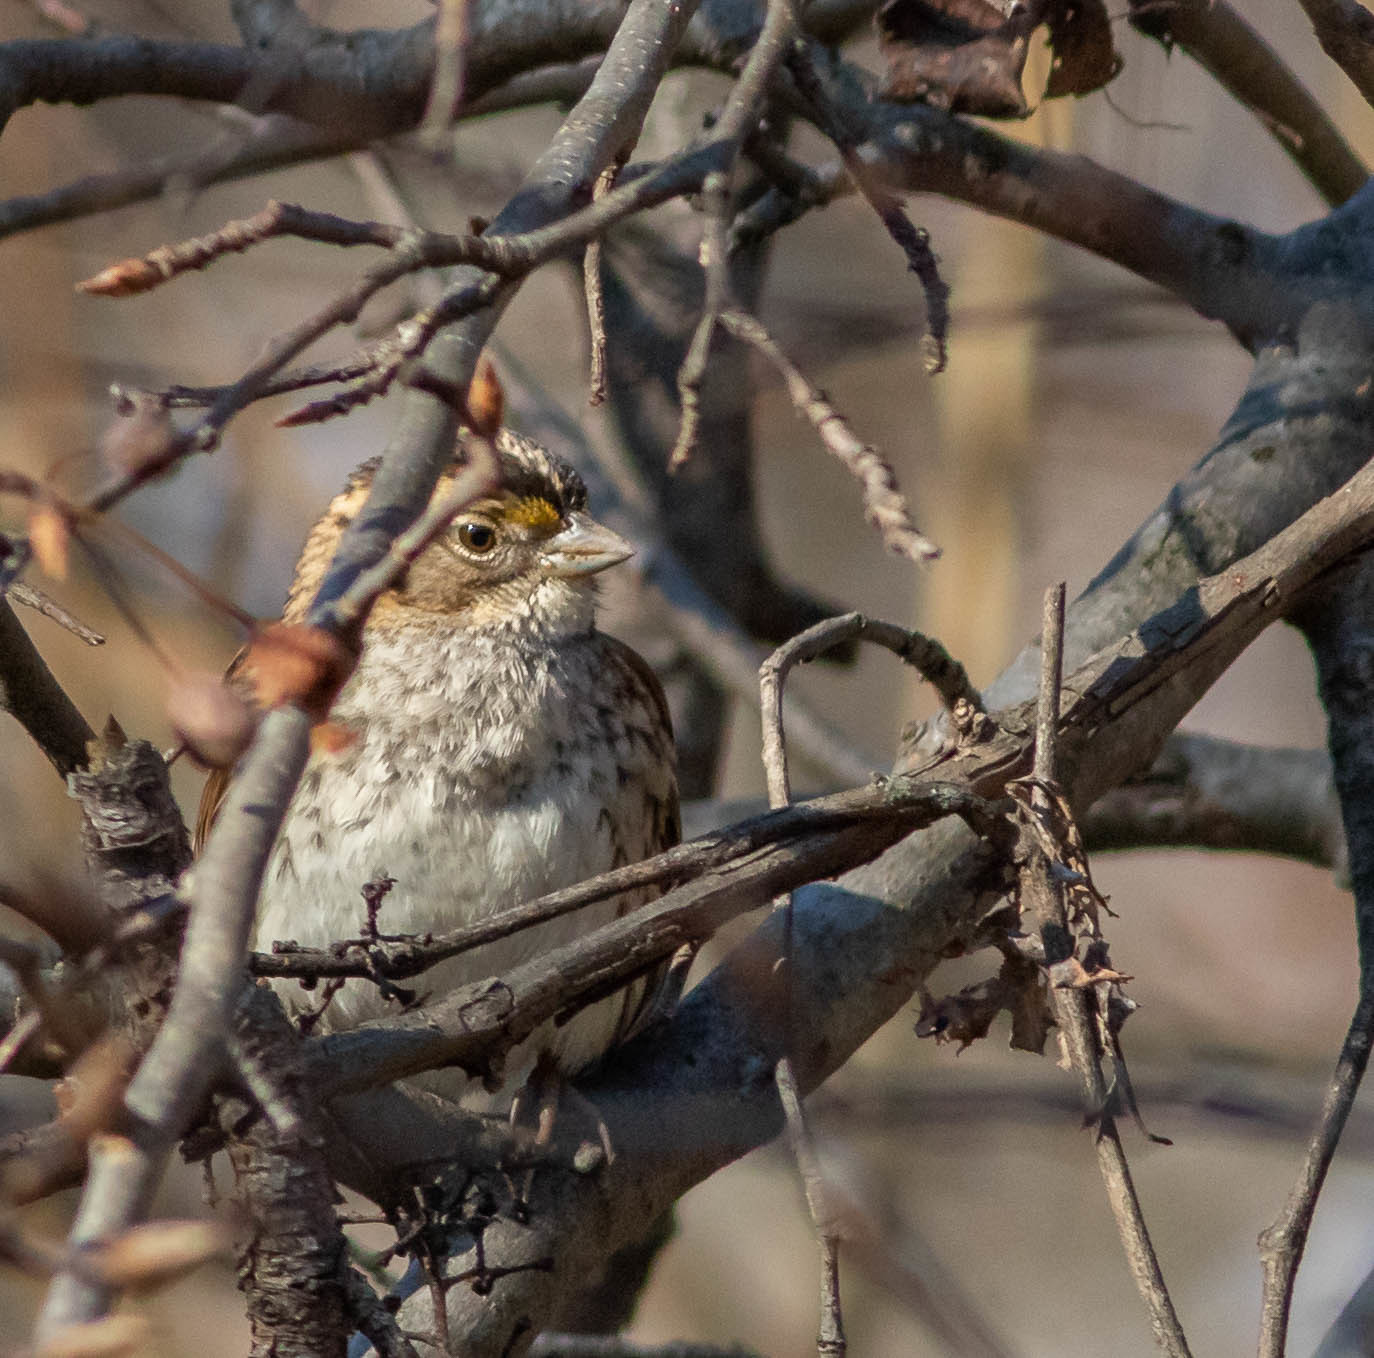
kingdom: Animalia
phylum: Chordata
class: Aves
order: Passeriformes
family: Passerellidae
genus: Zonotrichia
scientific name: Zonotrichia albicollis
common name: White-throated sparrow
